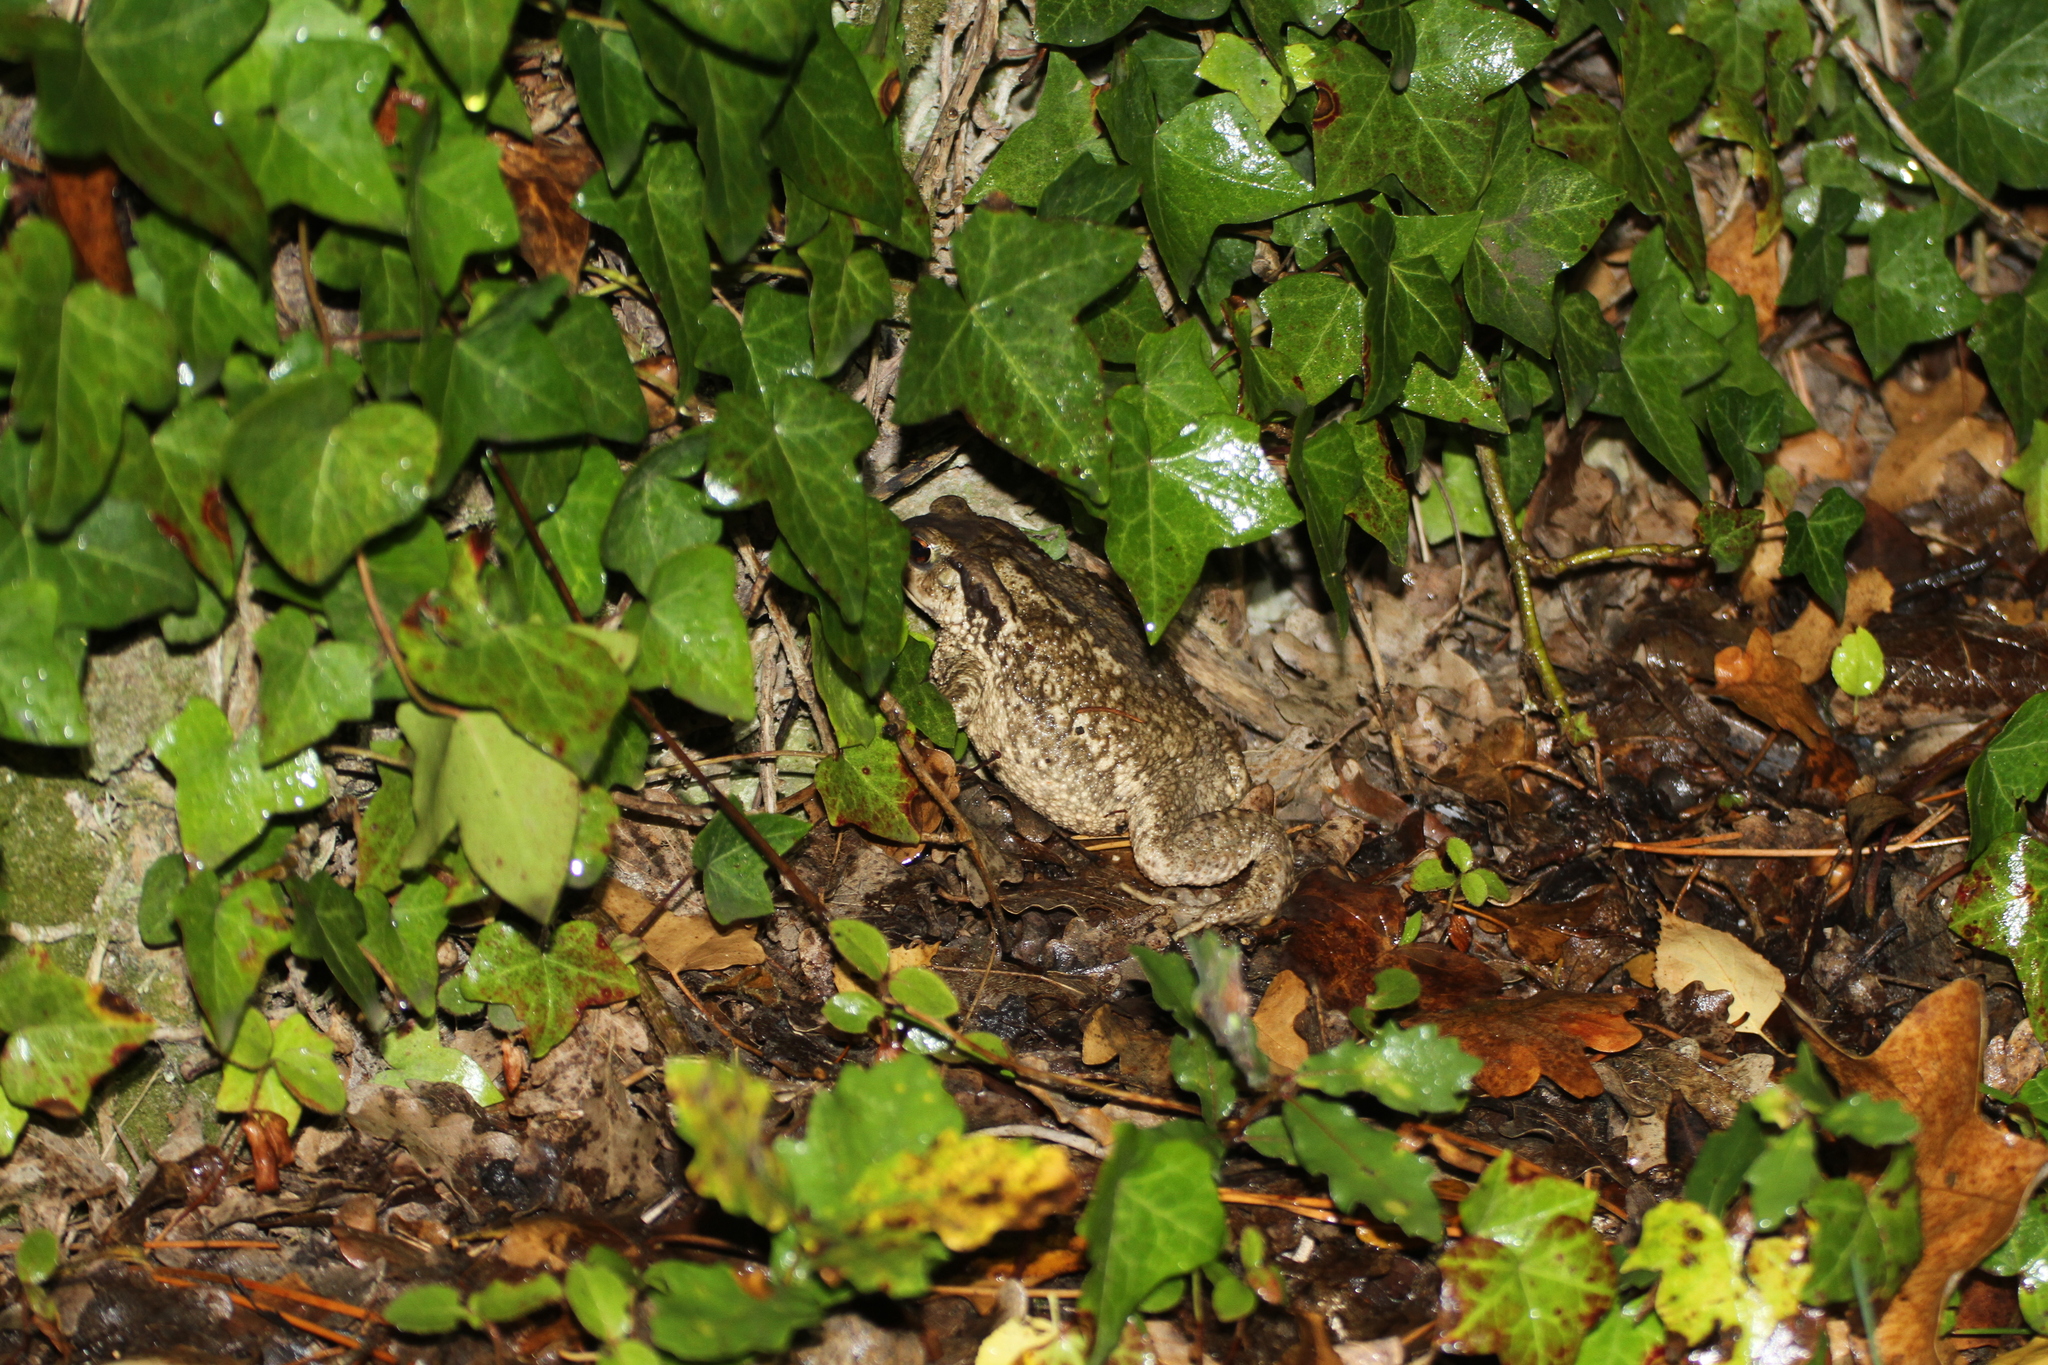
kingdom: Animalia
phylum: Chordata
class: Amphibia
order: Anura
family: Bufonidae
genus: Bufo
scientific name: Bufo spinosus
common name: Western common toad
